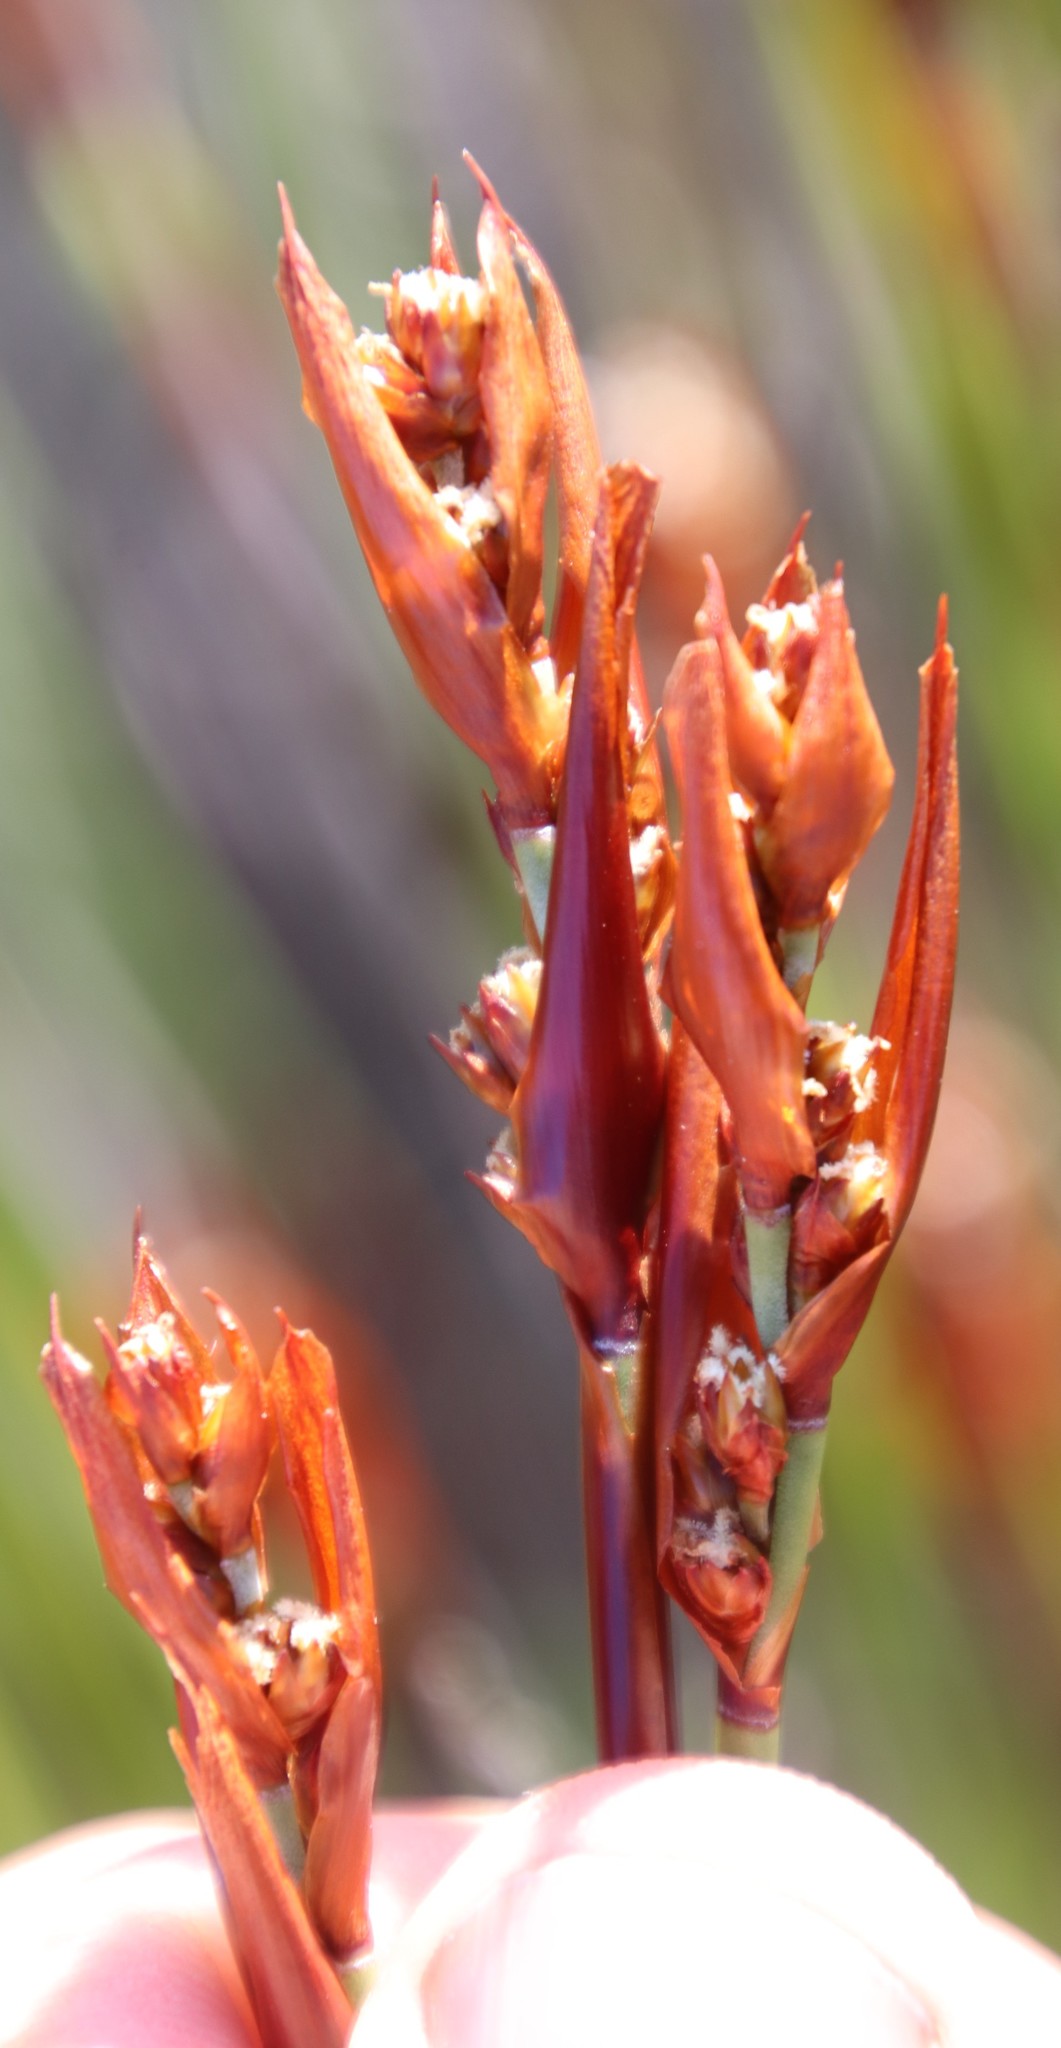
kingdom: Plantae
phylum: Tracheophyta
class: Liliopsida
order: Poales
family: Restionaceae
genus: Elegia
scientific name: Elegia ebracteata
